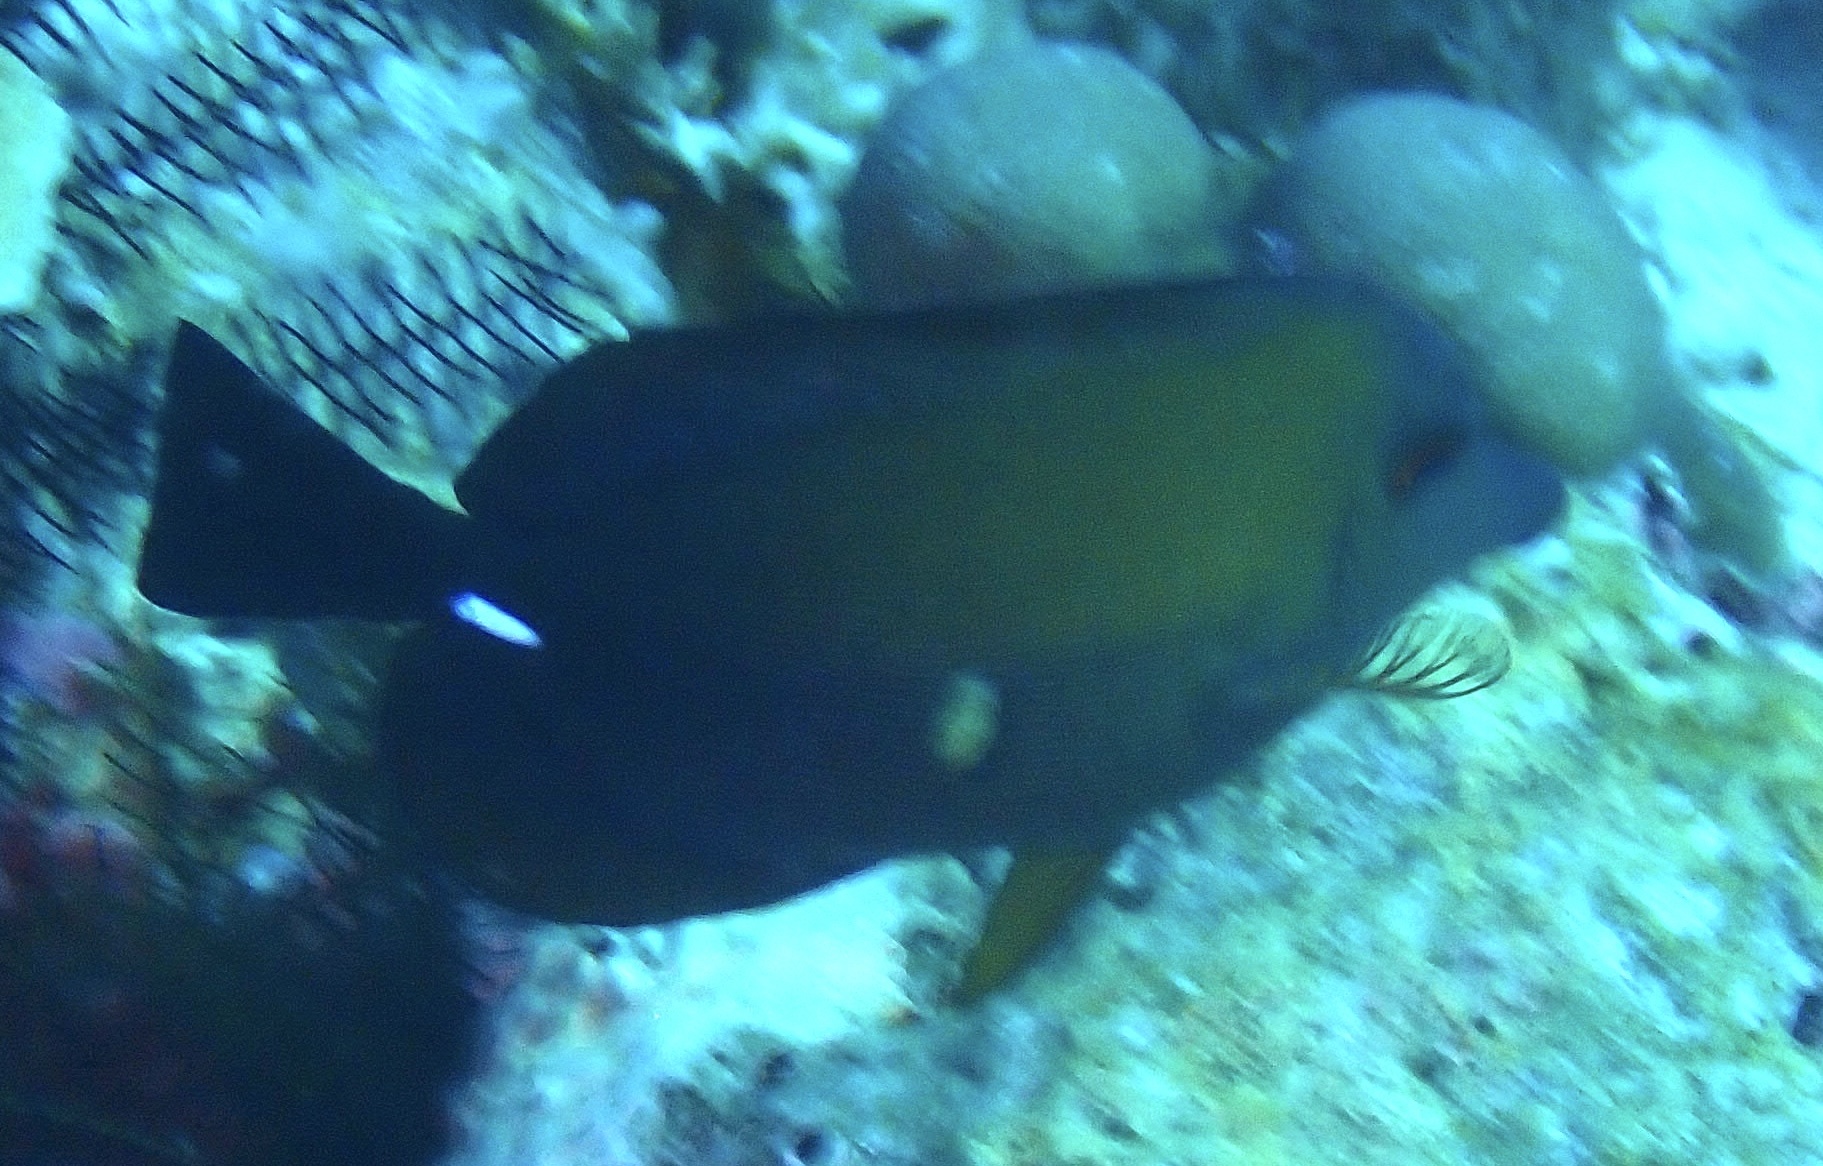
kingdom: Animalia
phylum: Chordata
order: Perciformes
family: Acanthuridae
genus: Zebrasoma
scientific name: Zebrasoma scopas
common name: Twotone tang
